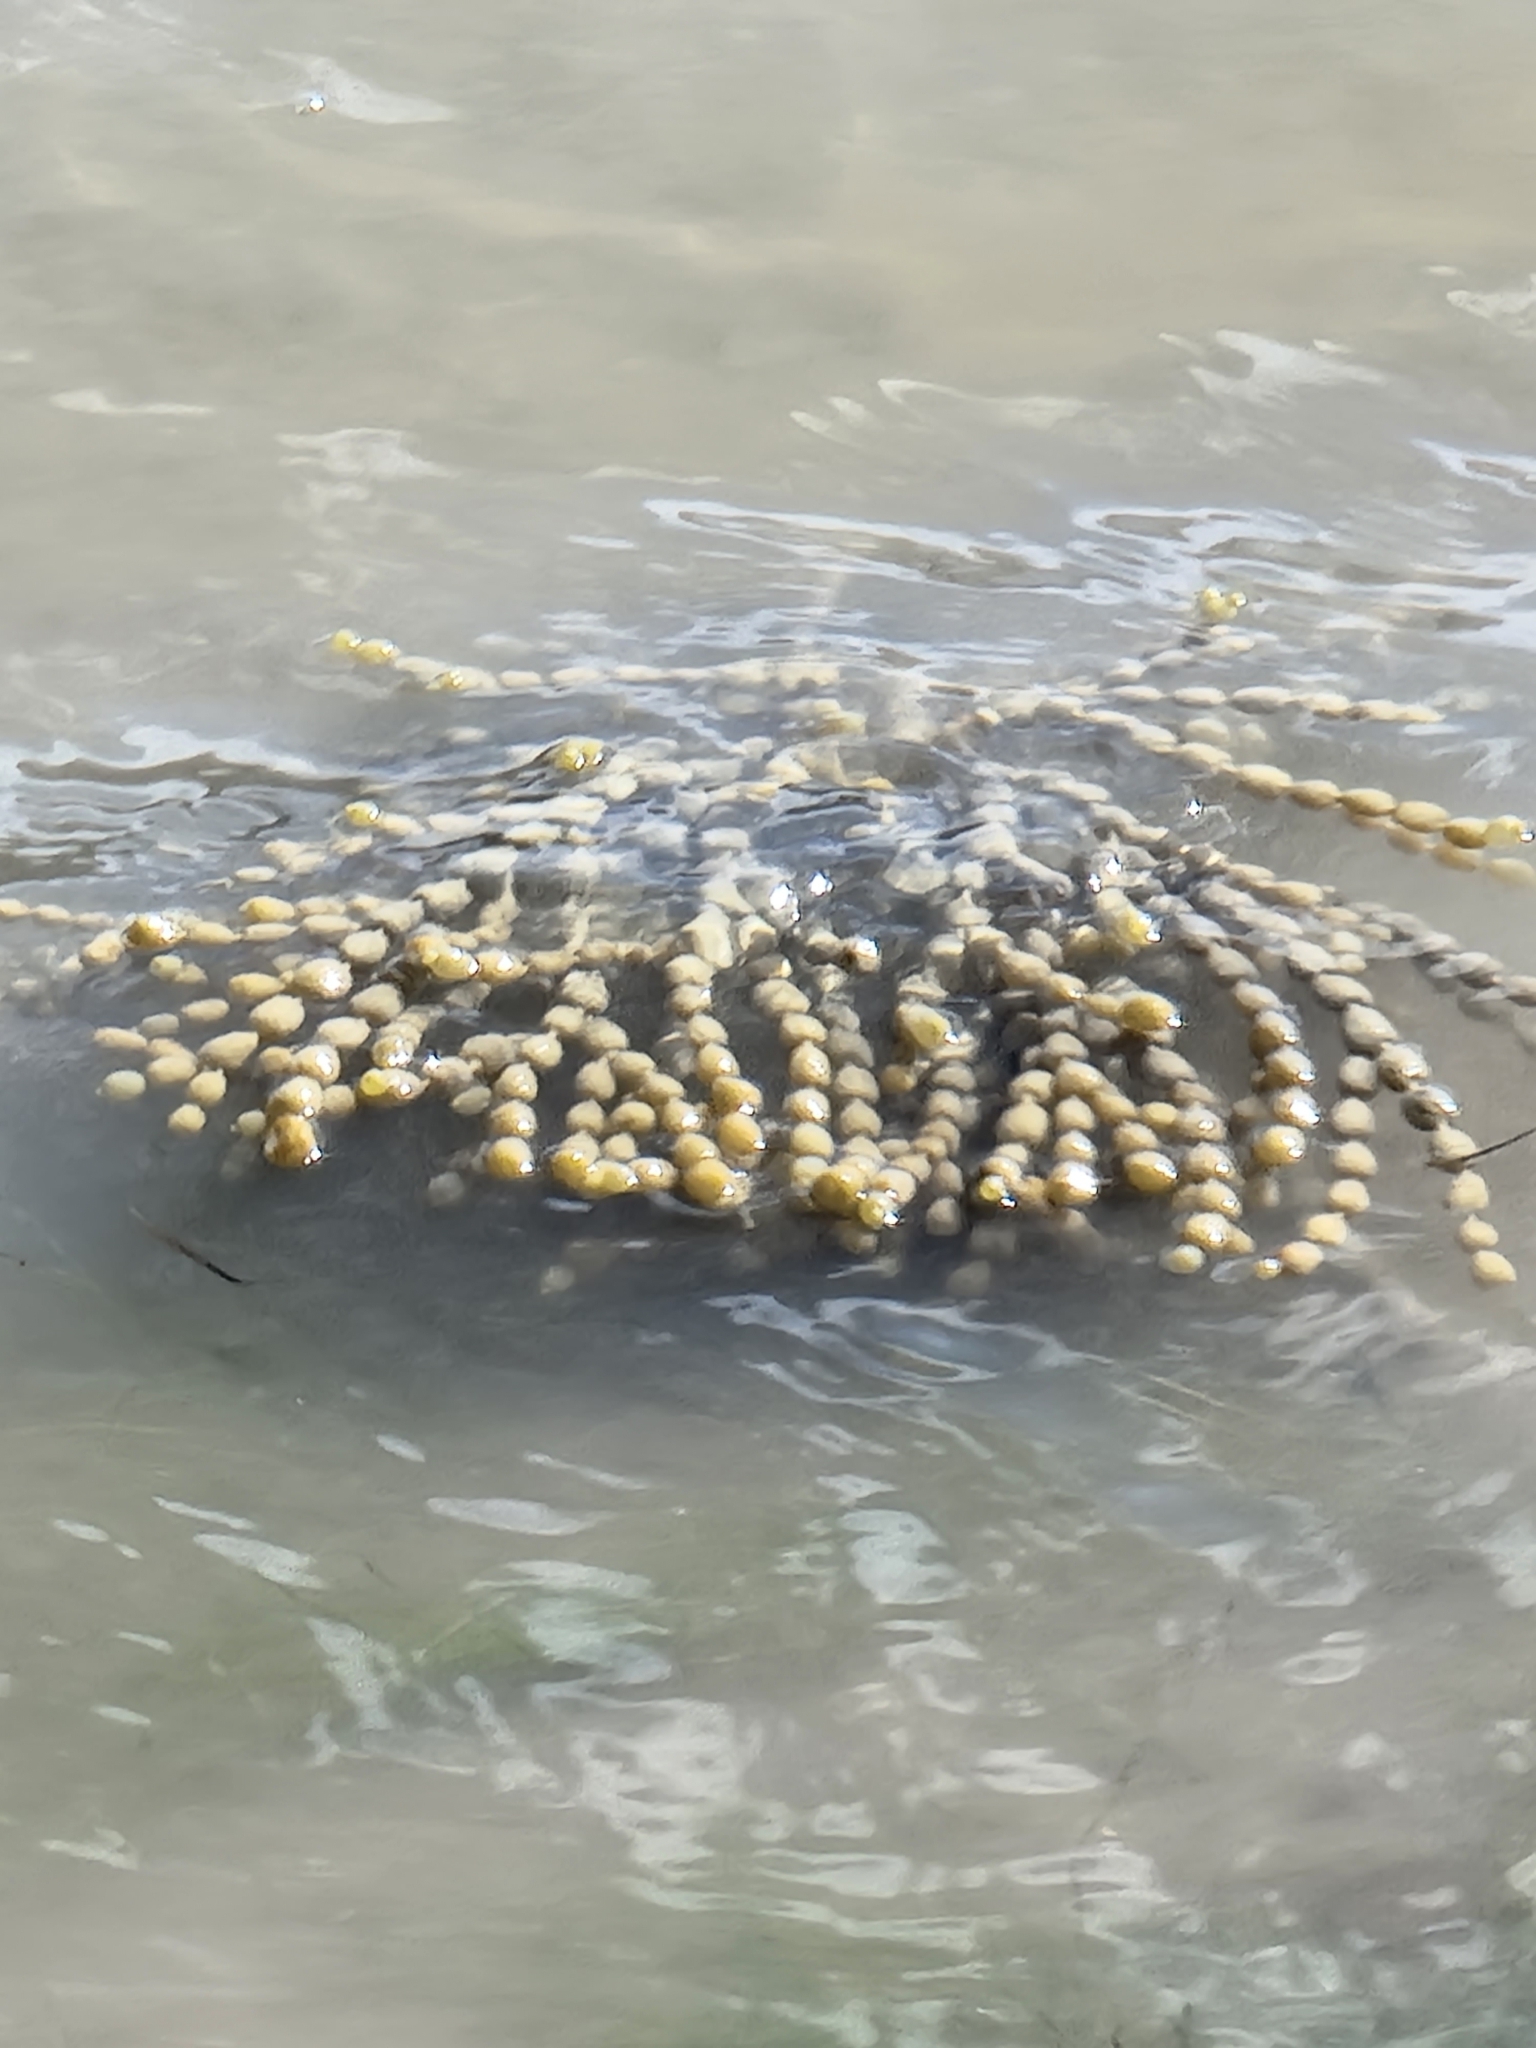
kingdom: Chromista
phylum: Ochrophyta
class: Phaeophyceae
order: Fucales
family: Hormosiraceae
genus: Hormosira
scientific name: Hormosira banksii
